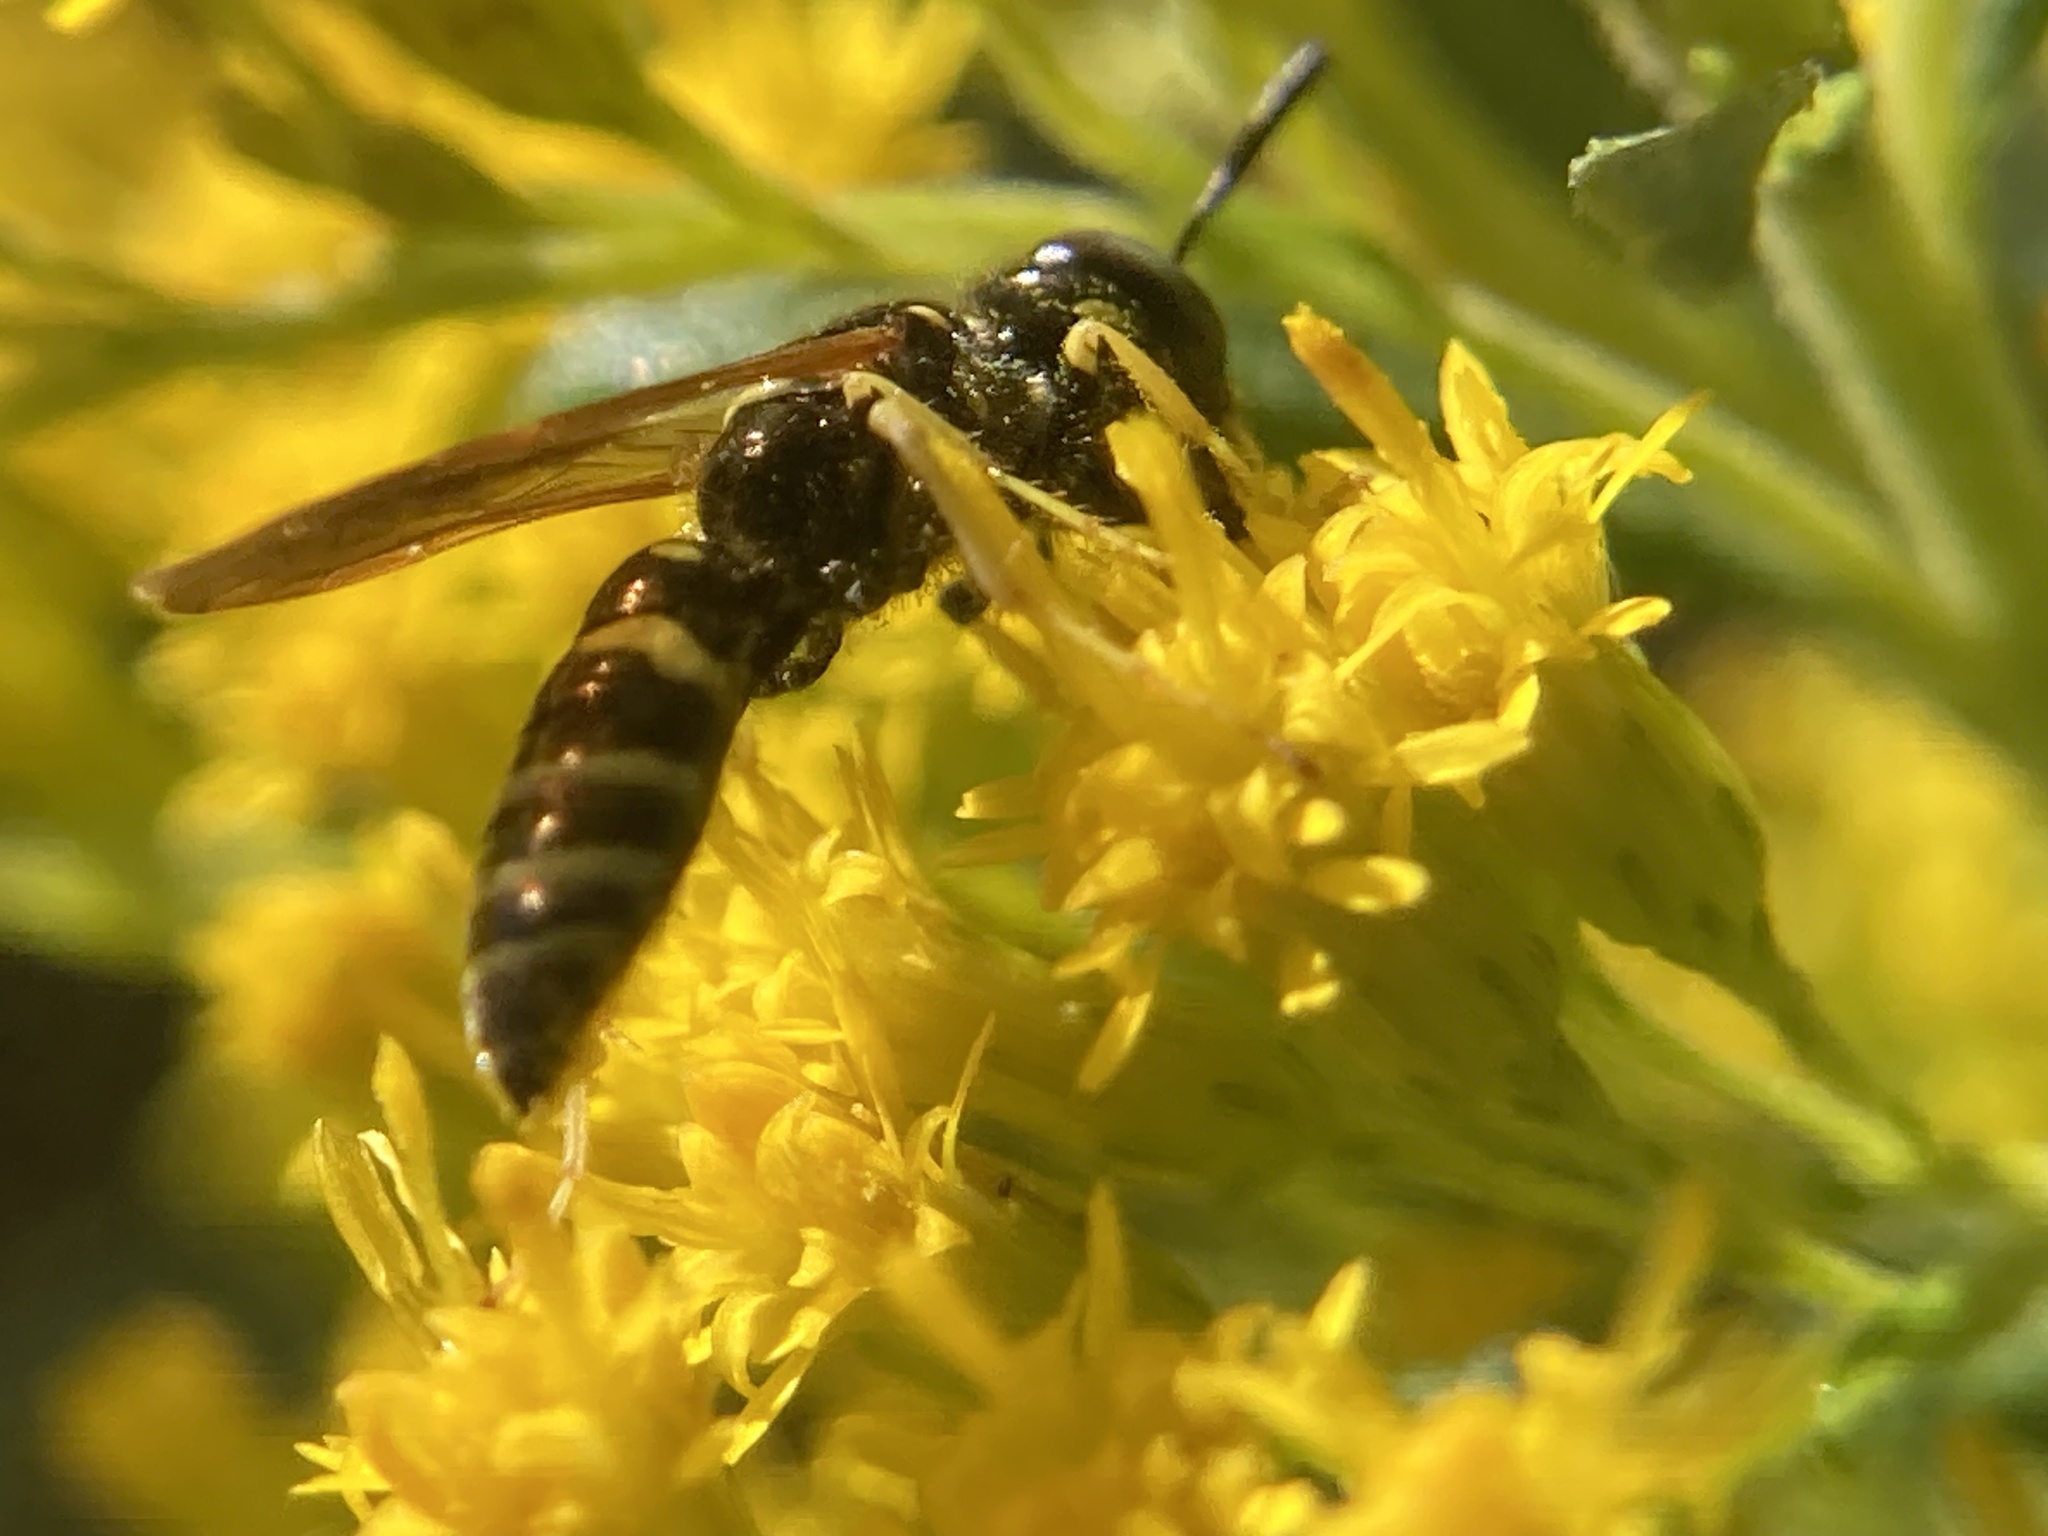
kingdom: Animalia
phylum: Arthropoda
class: Insecta
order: Hymenoptera
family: Crabronidae
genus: Philanthus
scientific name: Philanthus lepidus
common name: Pleasant beewolf
